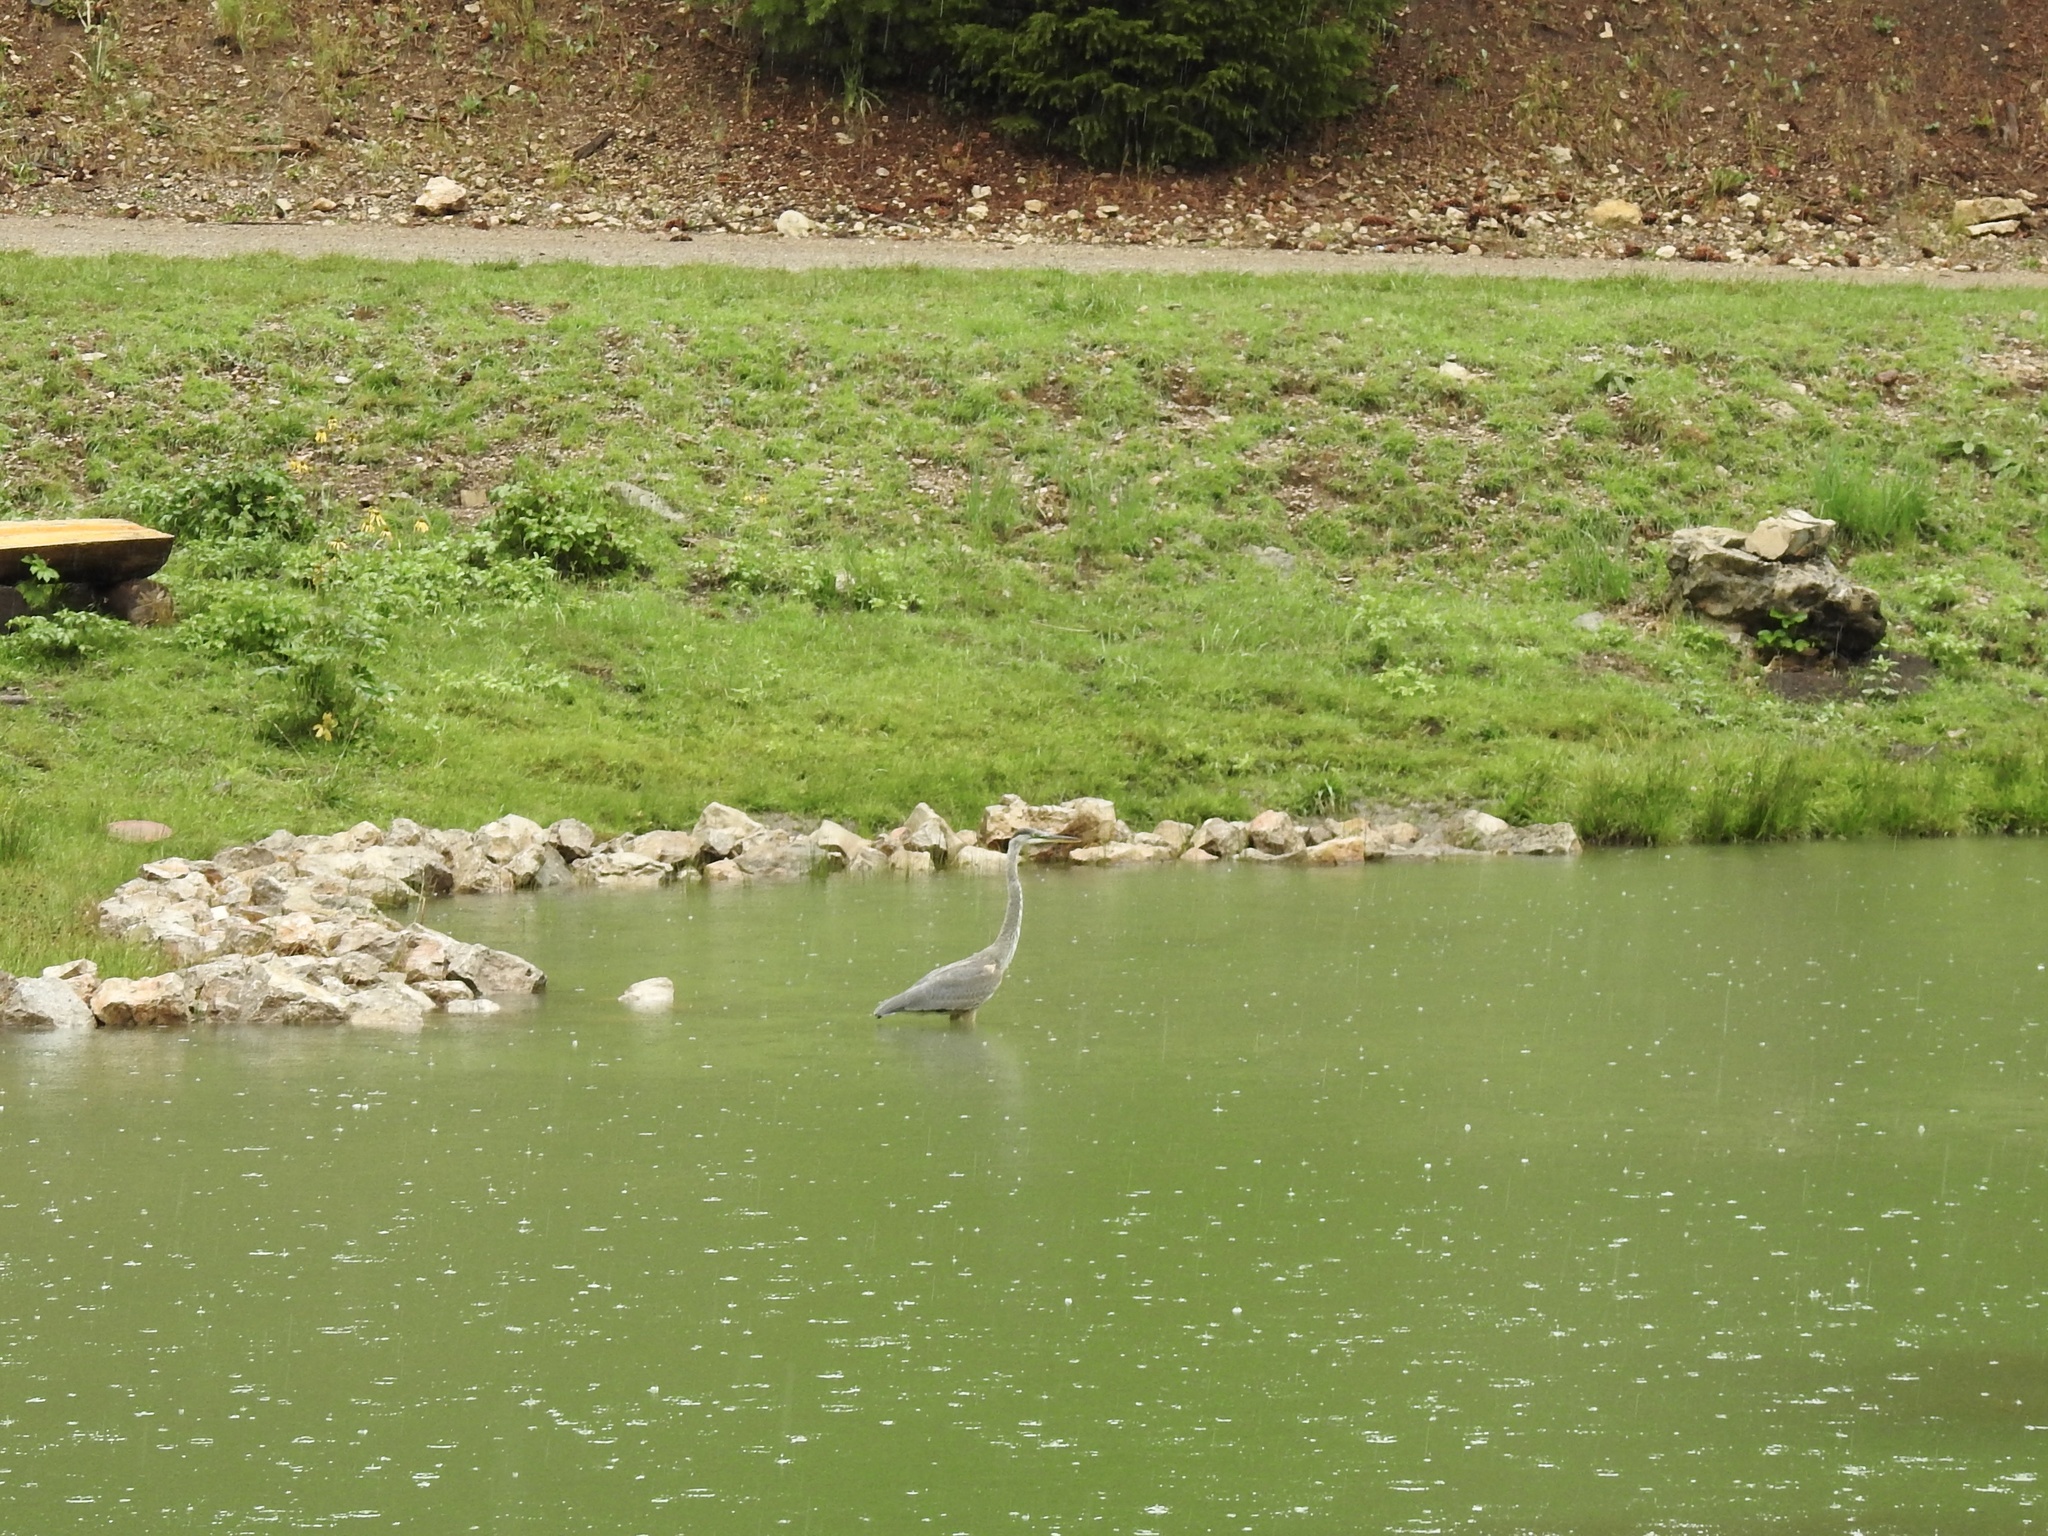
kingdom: Animalia
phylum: Chordata
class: Aves
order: Pelecaniformes
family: Ardeidae
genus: Ardea
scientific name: Ardea herodias
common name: Great blue heron
